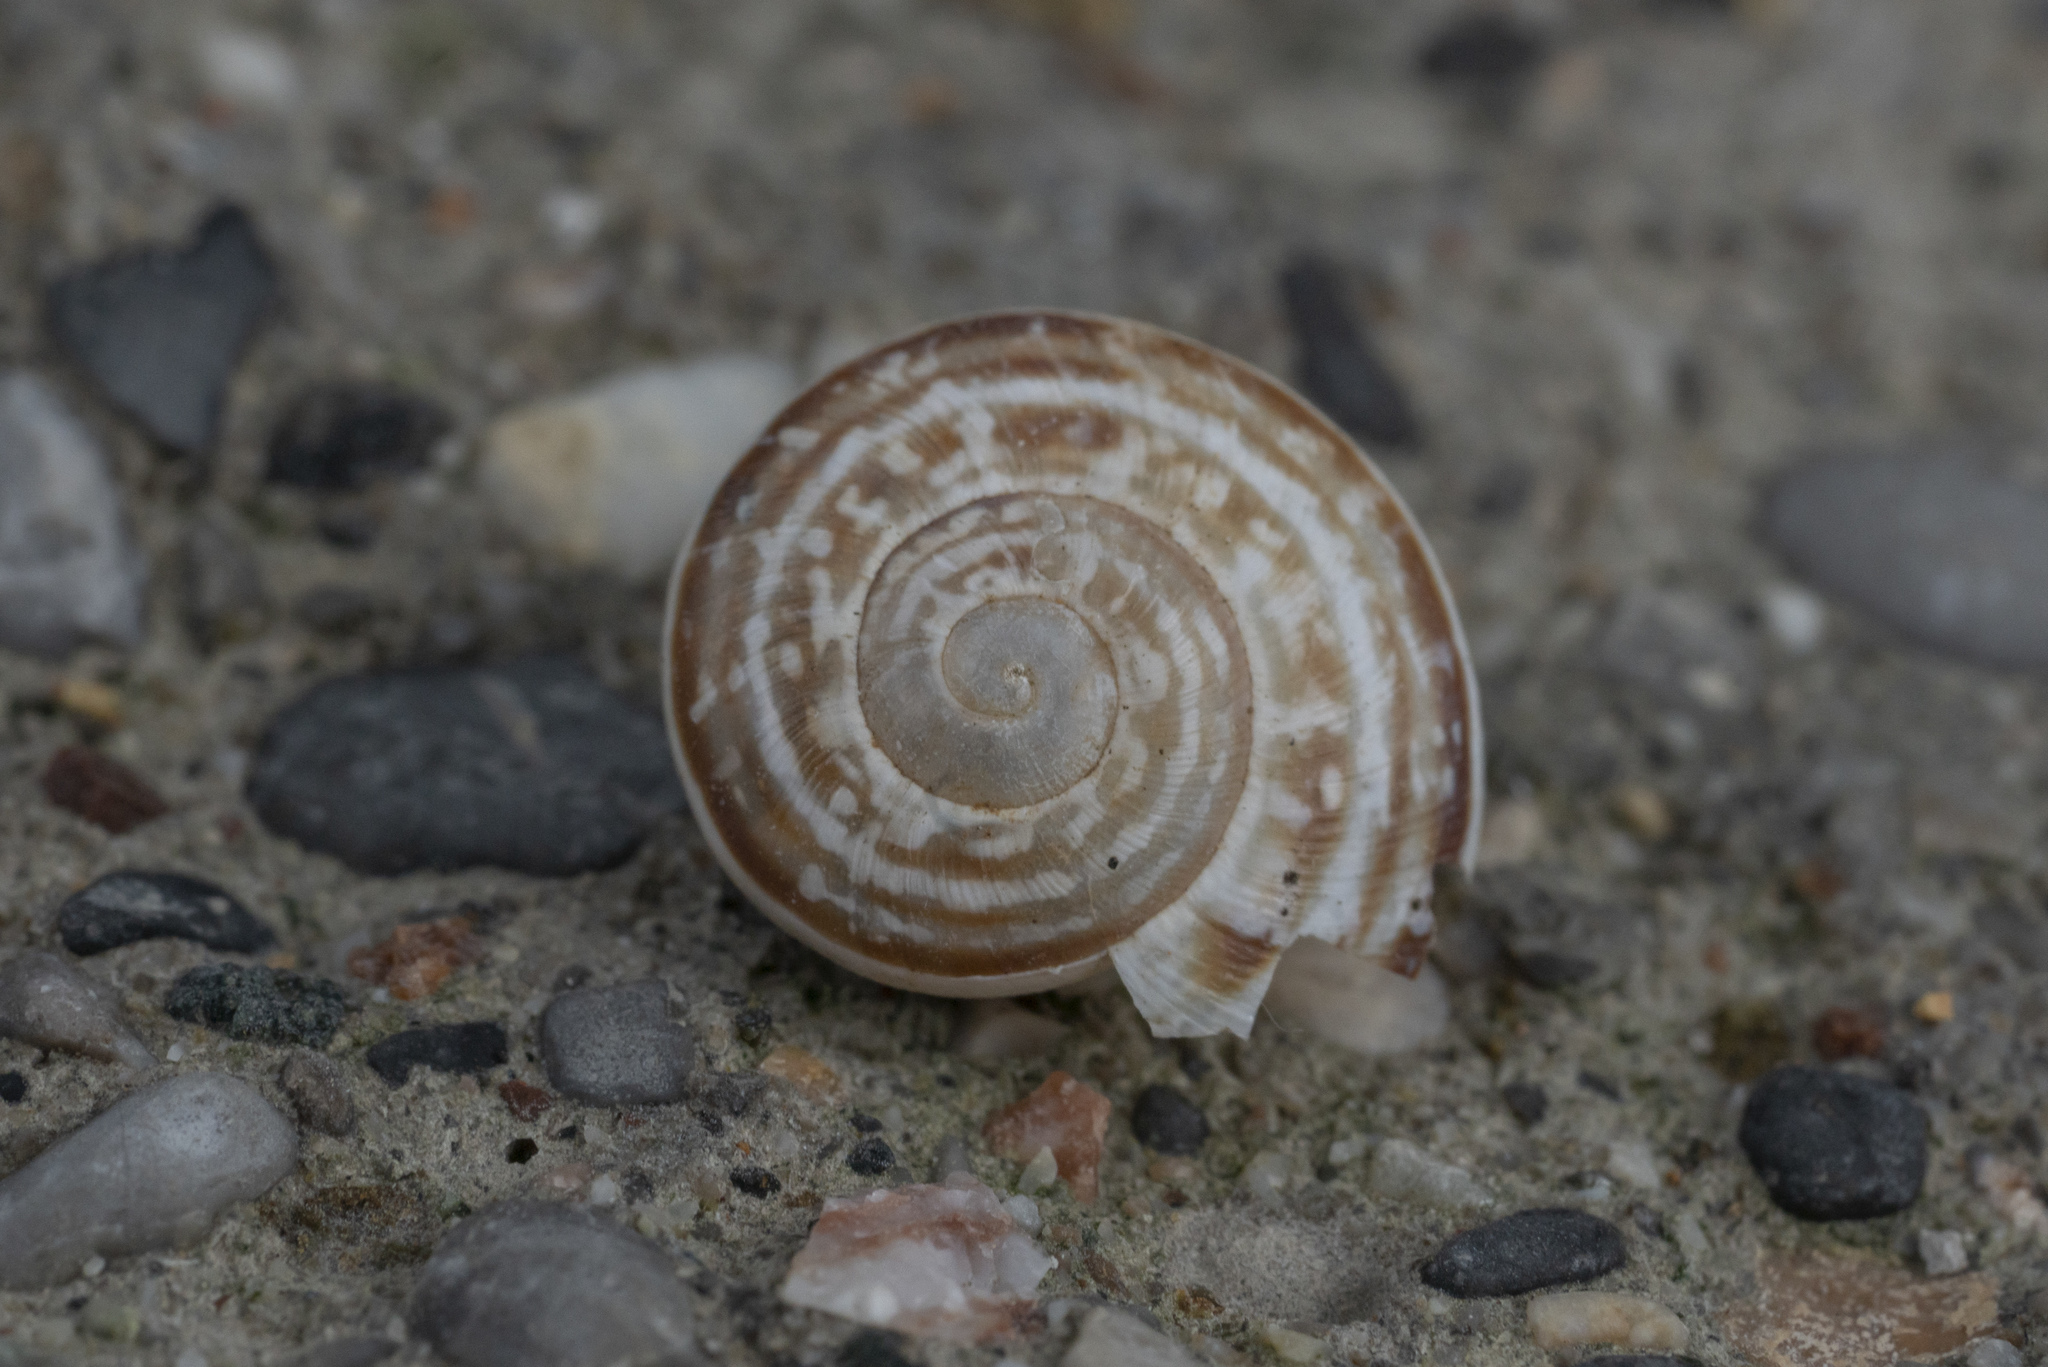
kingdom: Animalia
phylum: Mollusca
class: Gastropoda
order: Stylommatophora
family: Helicidae
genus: Eobania
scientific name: Eobania vermiculata
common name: Chocolateband snail
